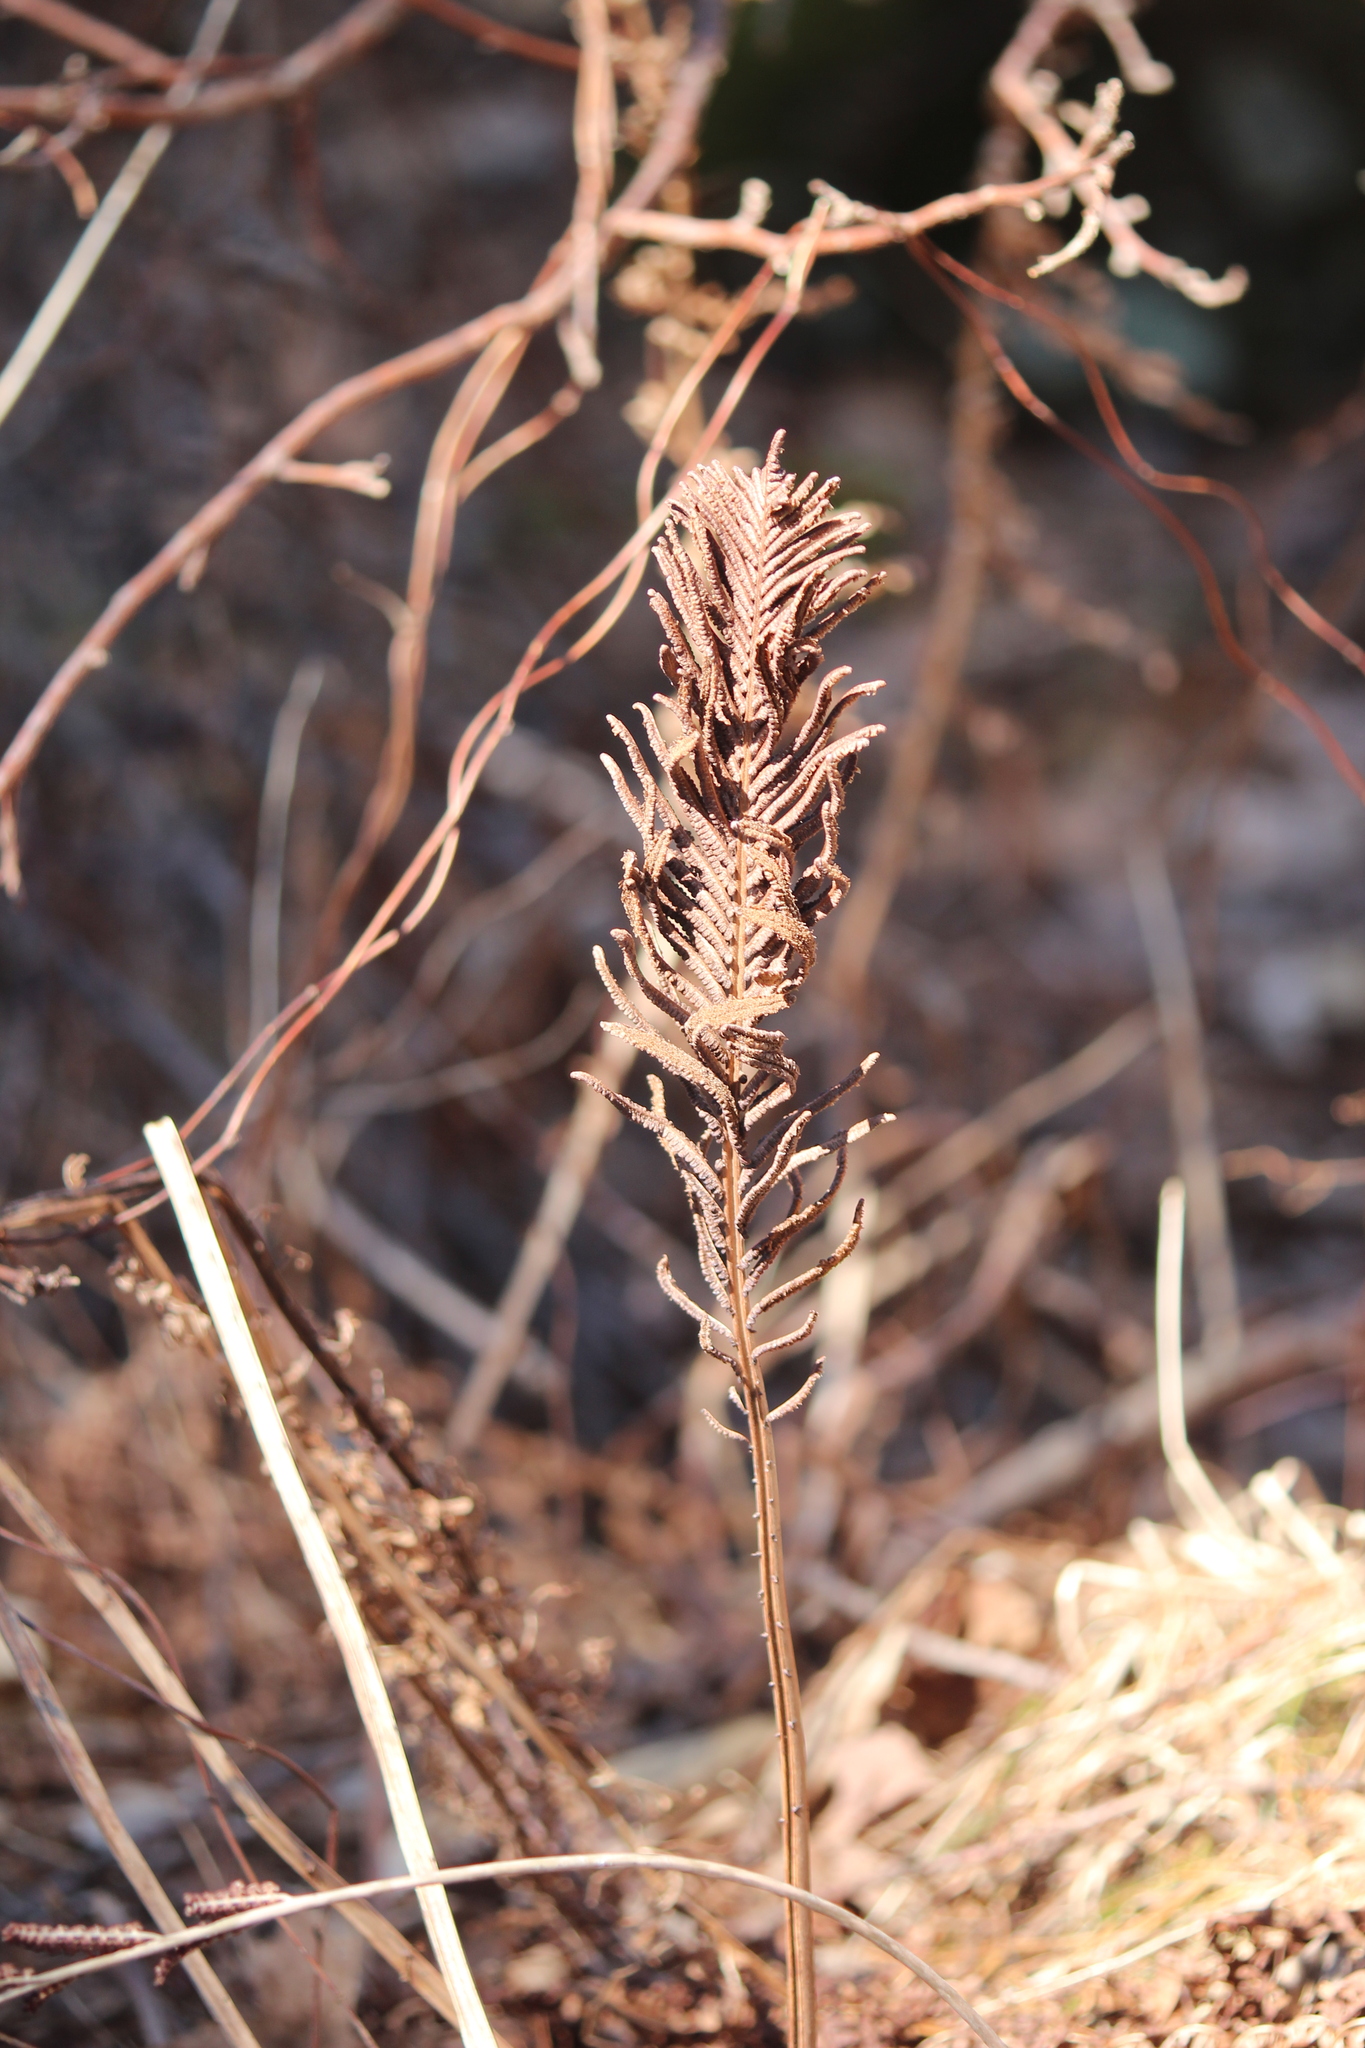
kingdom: Plantae
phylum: Tracheophyta
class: Polypodiopsida
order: Polypodiales
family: Onocleaceae
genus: Matteuccia
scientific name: Matteuccia struthiopteris
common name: Ostrich fern
